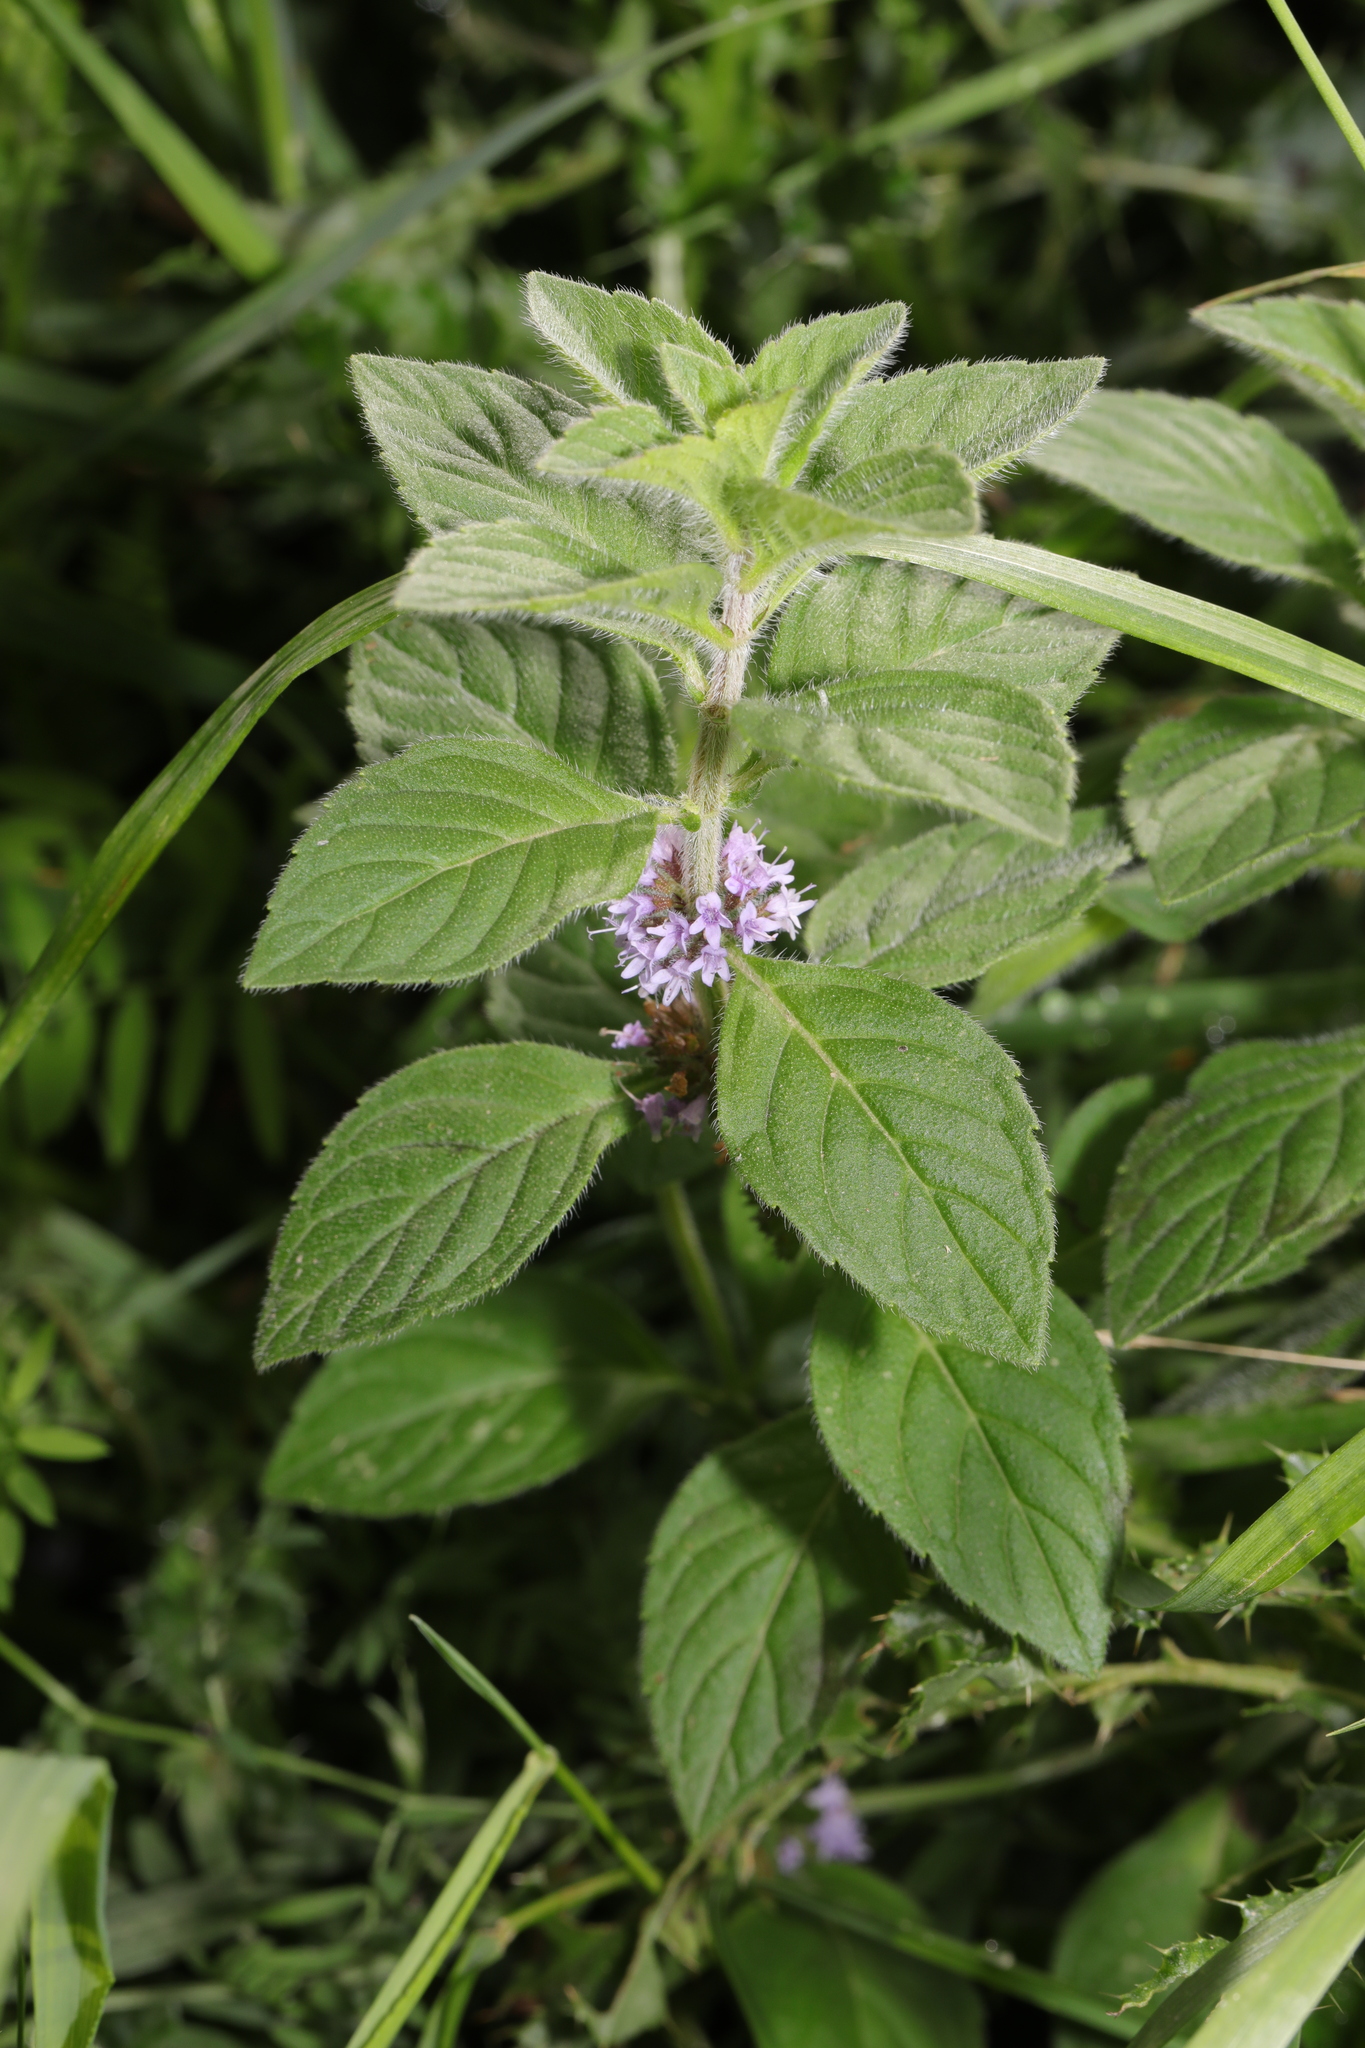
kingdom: Plantae
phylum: Tracheophyta
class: Magnoliopsida
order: Lamiales
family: Lamiaceae
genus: Mentha
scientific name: Mentha arvensis
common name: Corn mint
